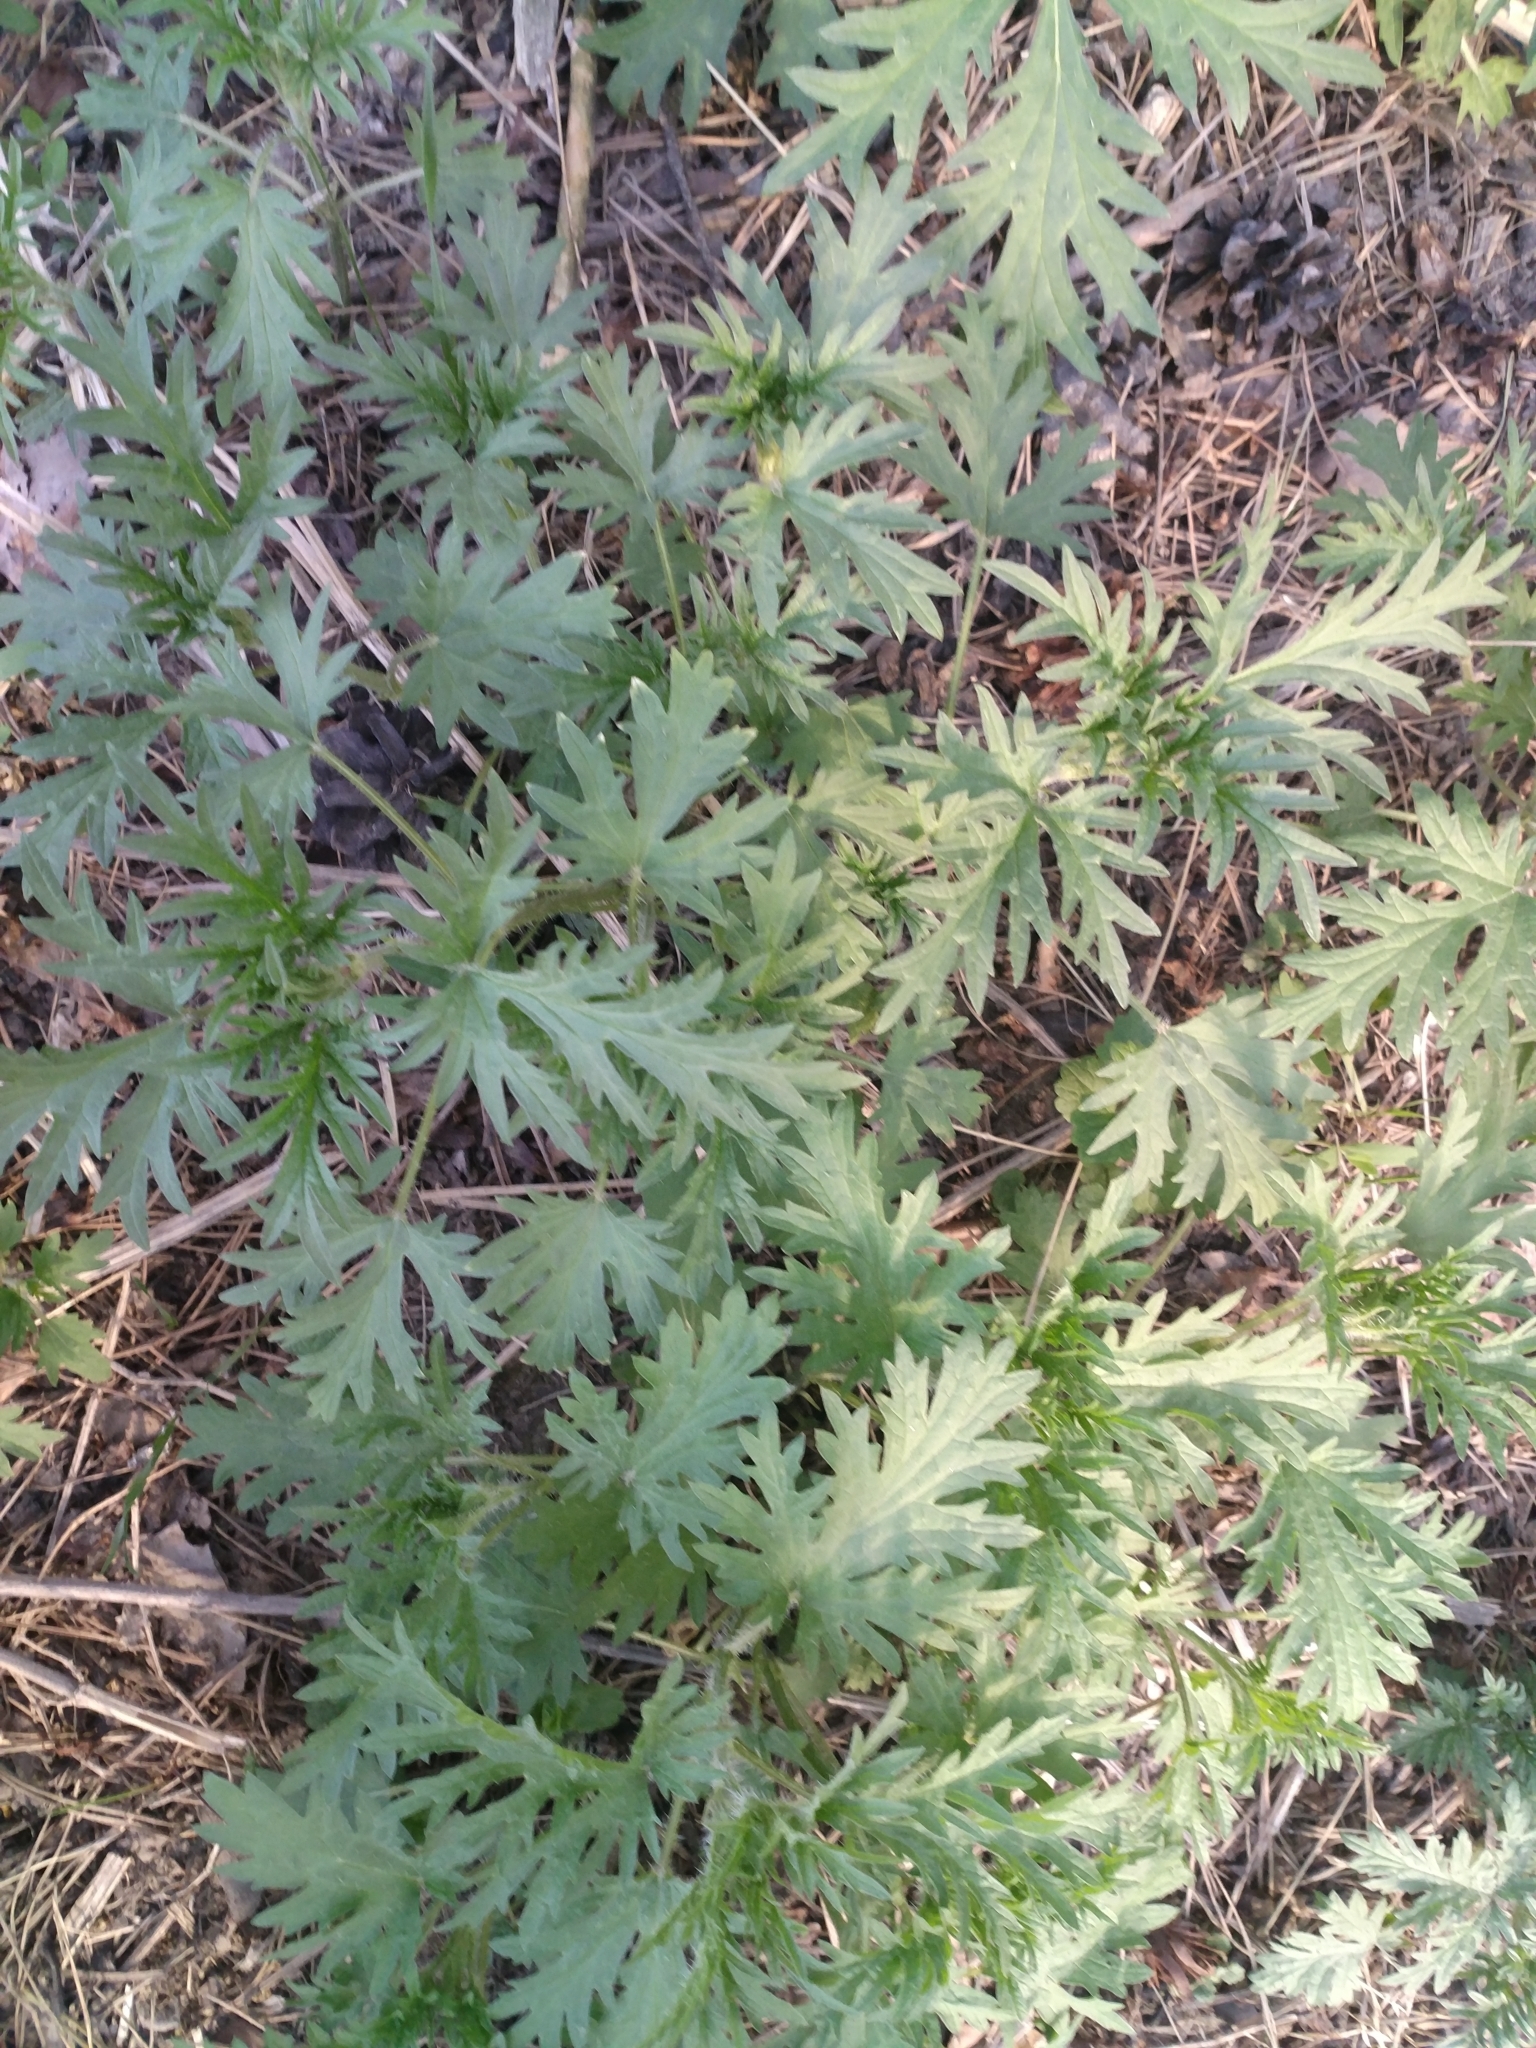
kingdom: Plantae
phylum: Tracheophyta
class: Magnoliopsida
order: Rosales
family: Urticaceae
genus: Urtica
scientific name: Urtica cannabina
